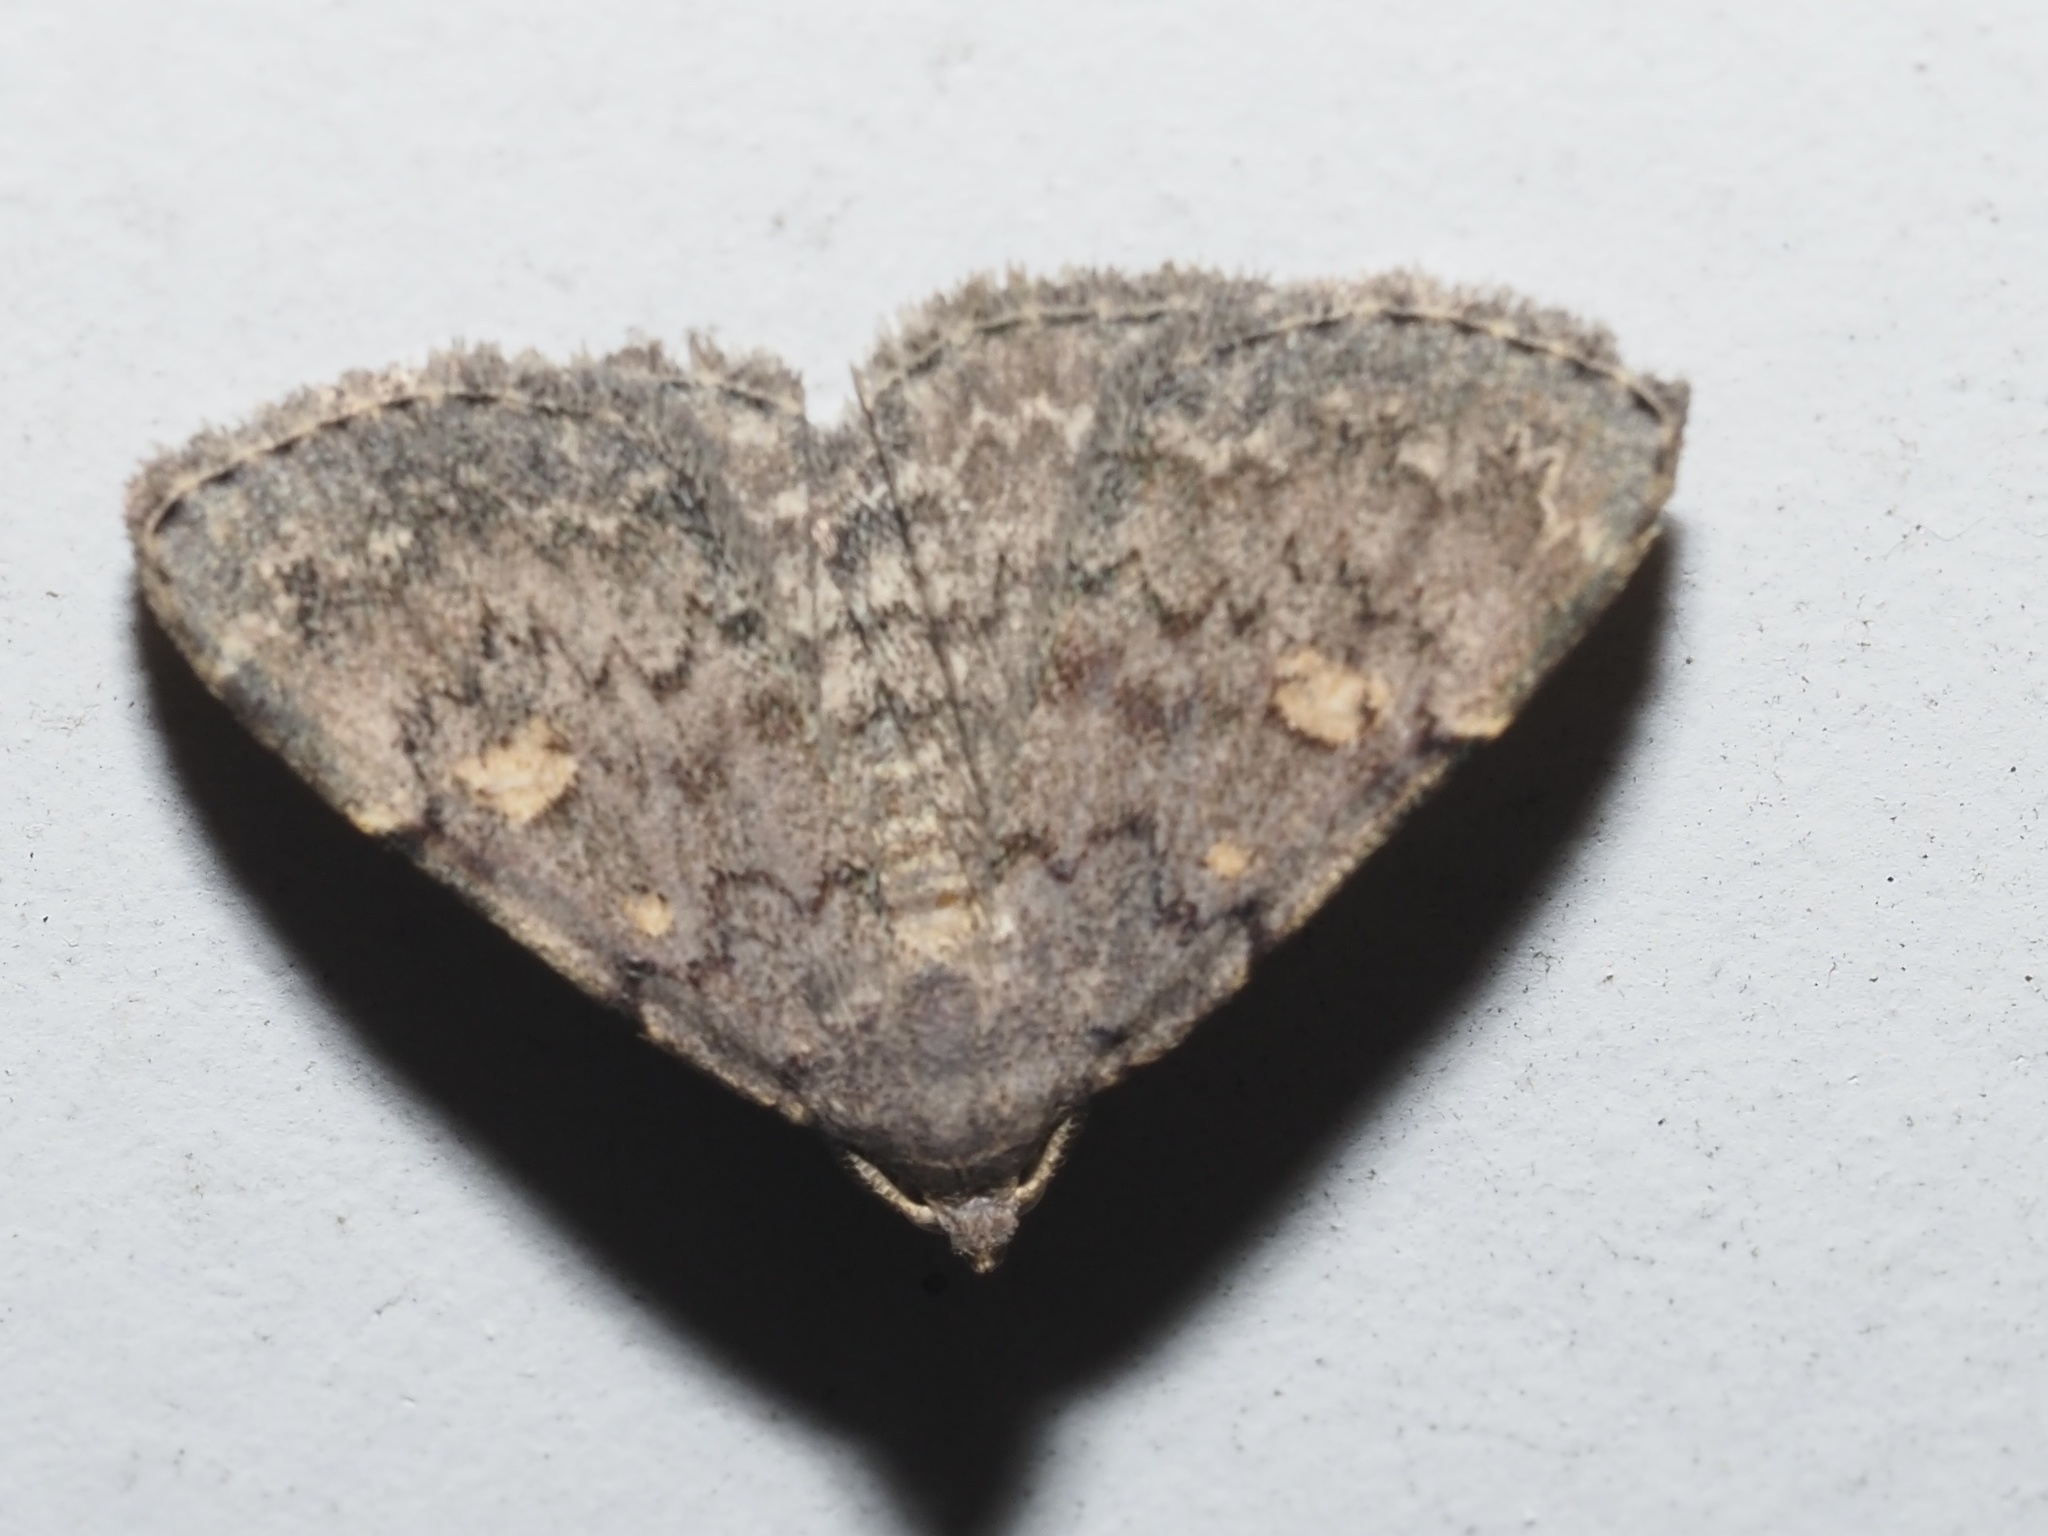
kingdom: Animalia
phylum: Arthropoda
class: Insecta
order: Lepidoptera
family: Erebidae
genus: Idia
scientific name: Idia aemula
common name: Common idia moth
